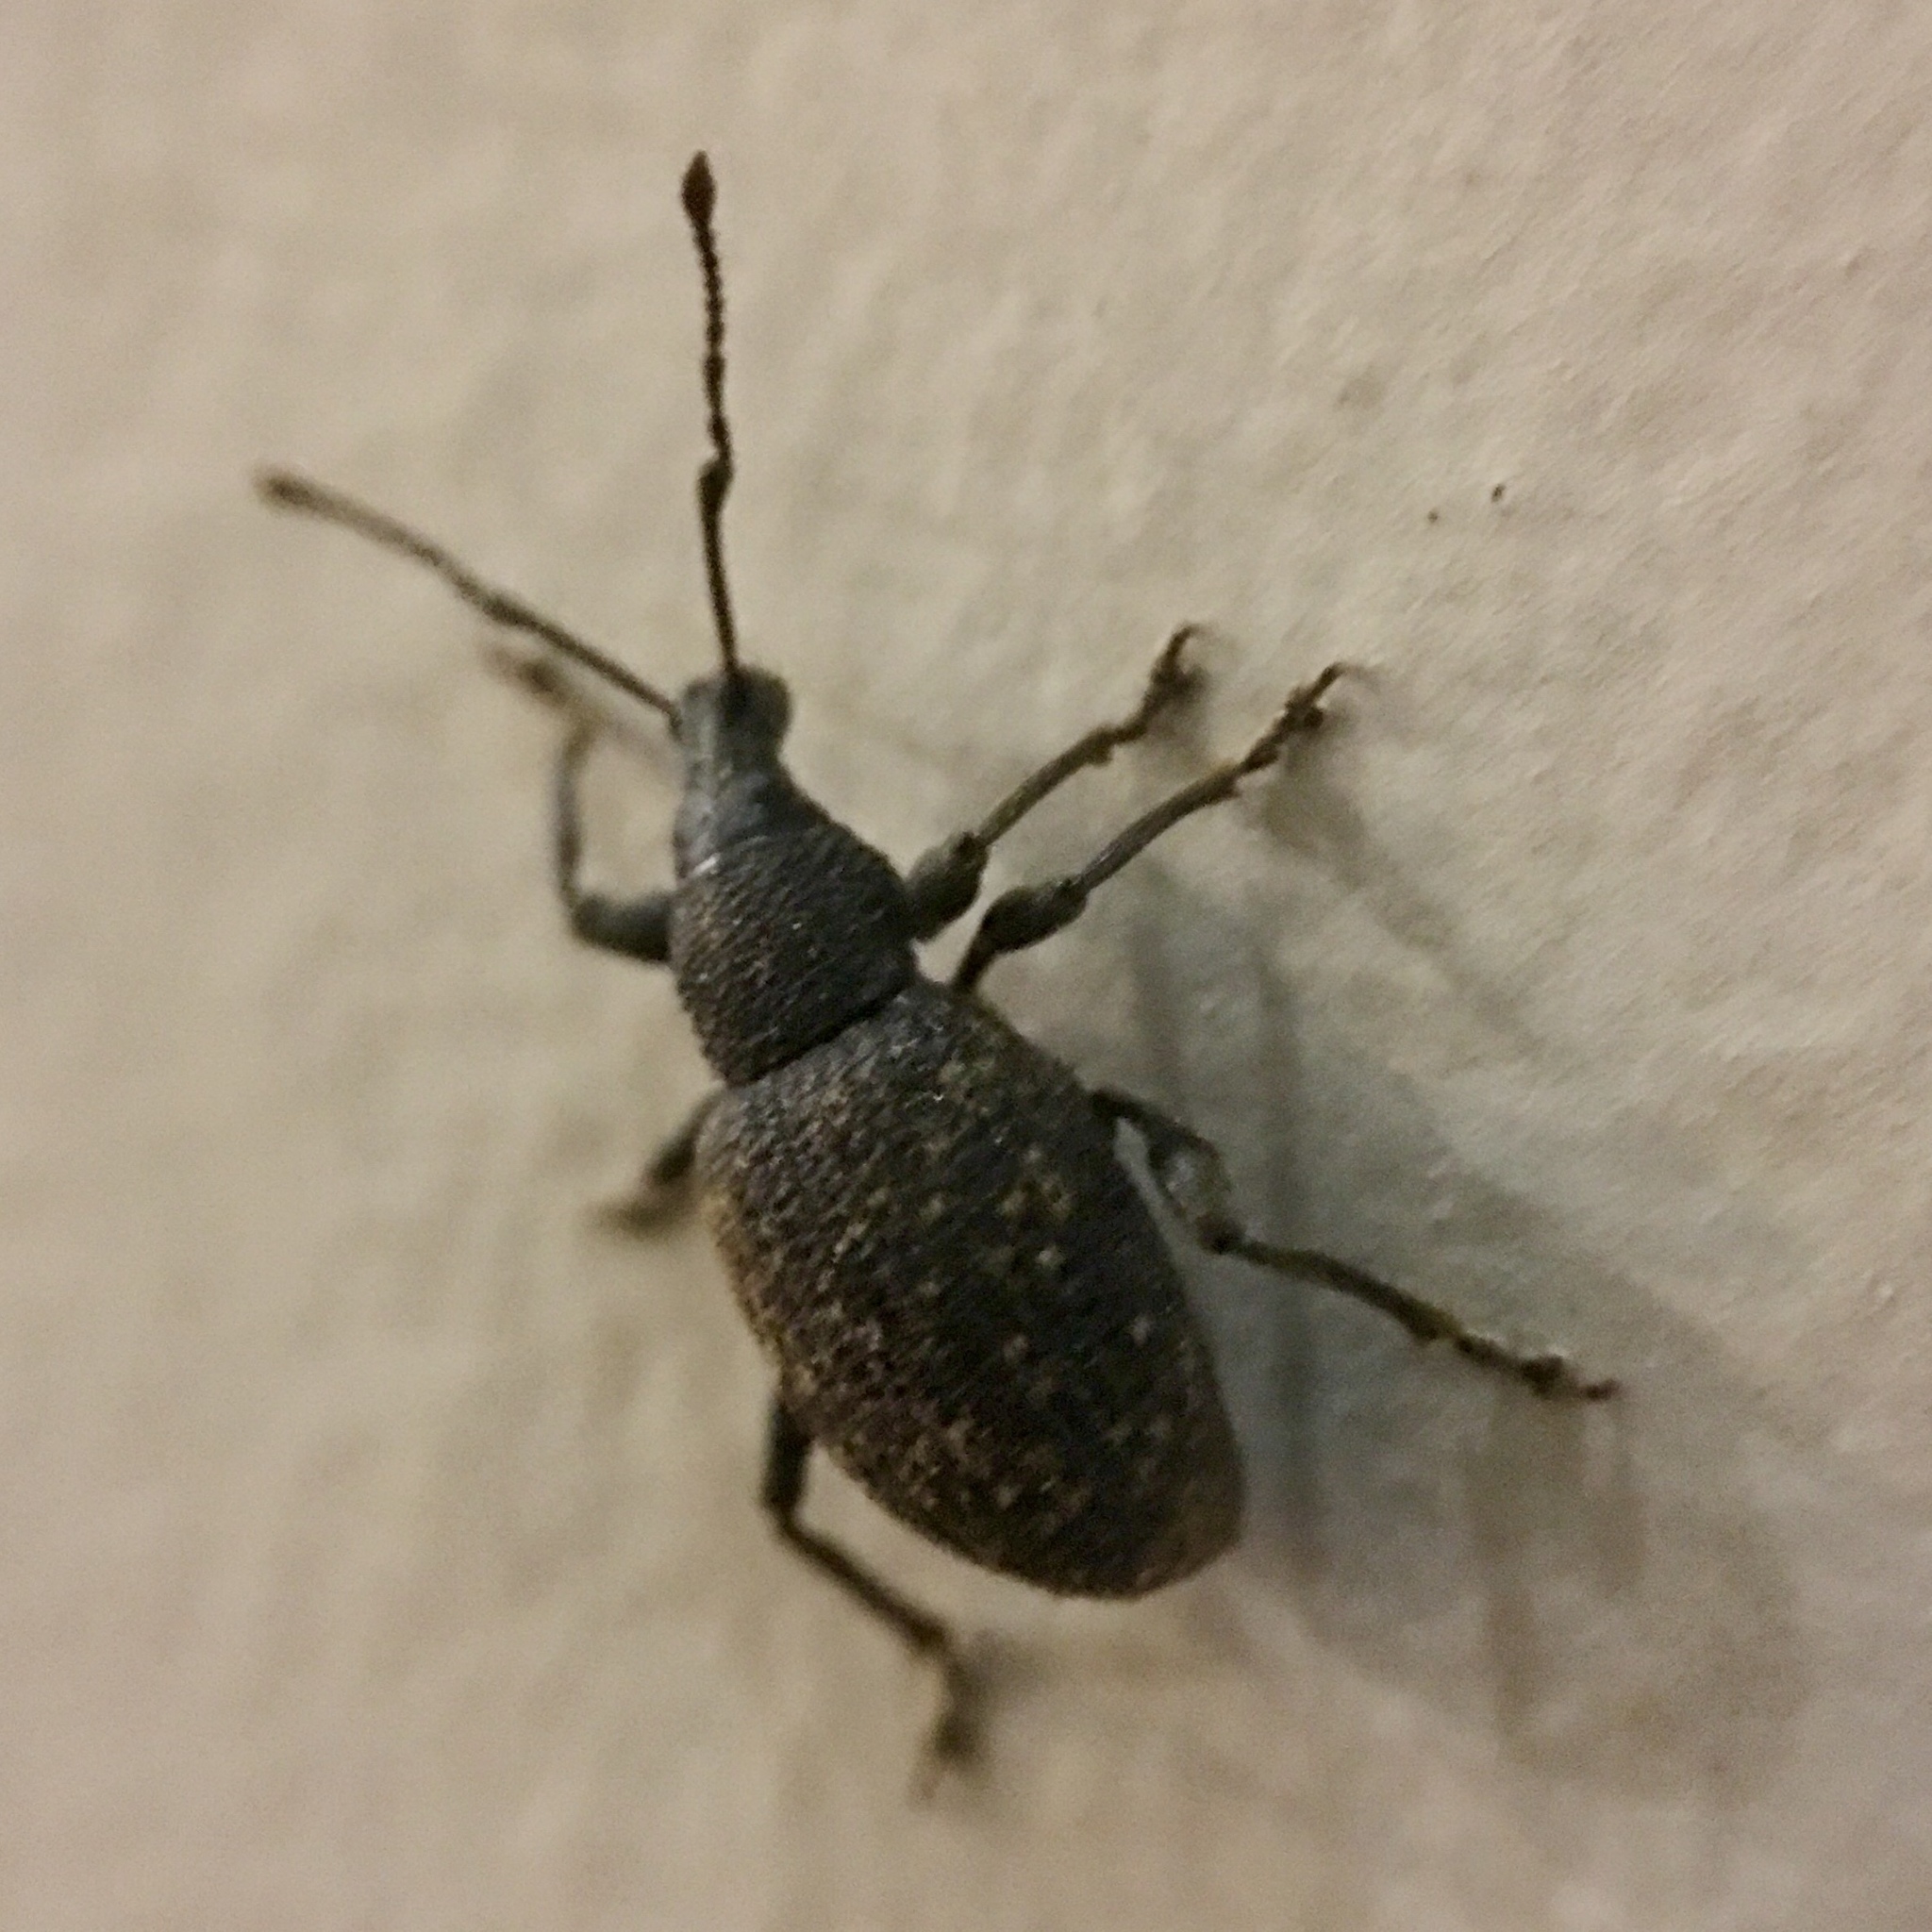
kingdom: Animalia
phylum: Arthropoda
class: Insecta
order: Coleoptera
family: Curculionidae
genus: Otiorhynchus
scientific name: Otiorhynchus sulcatus
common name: Black vine weevil
